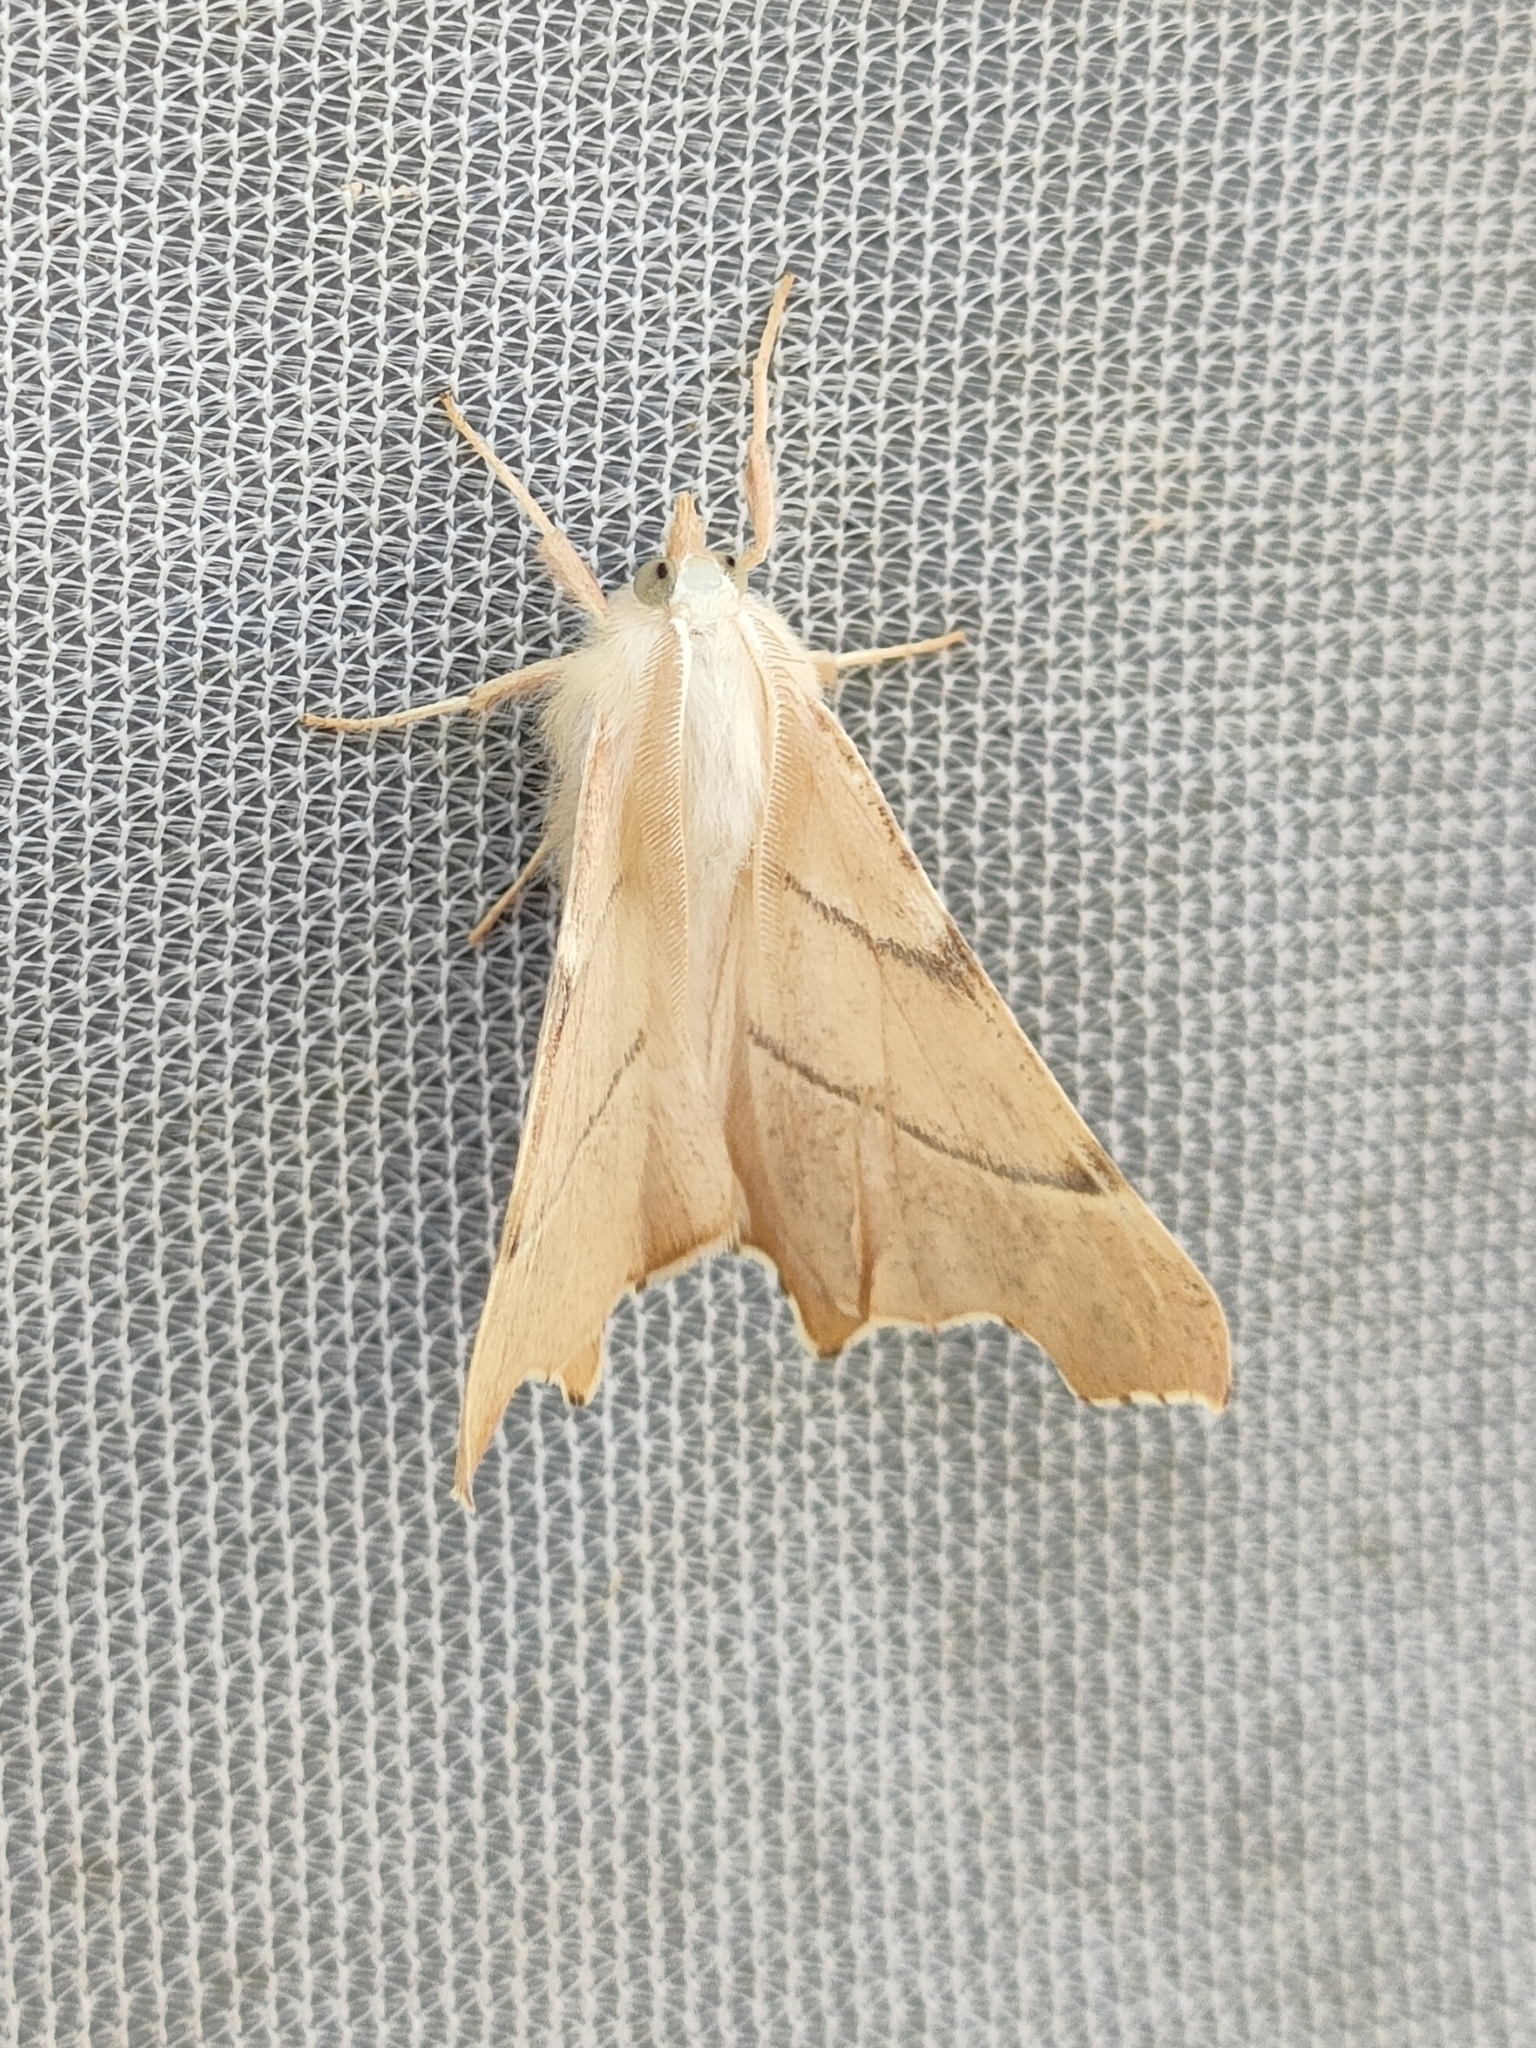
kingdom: Animalia
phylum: Arthropoda
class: Insecta
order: Lepidoptera
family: Geometridae
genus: Ennomos
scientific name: Ennomos quercaria
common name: Clouded august thorn
